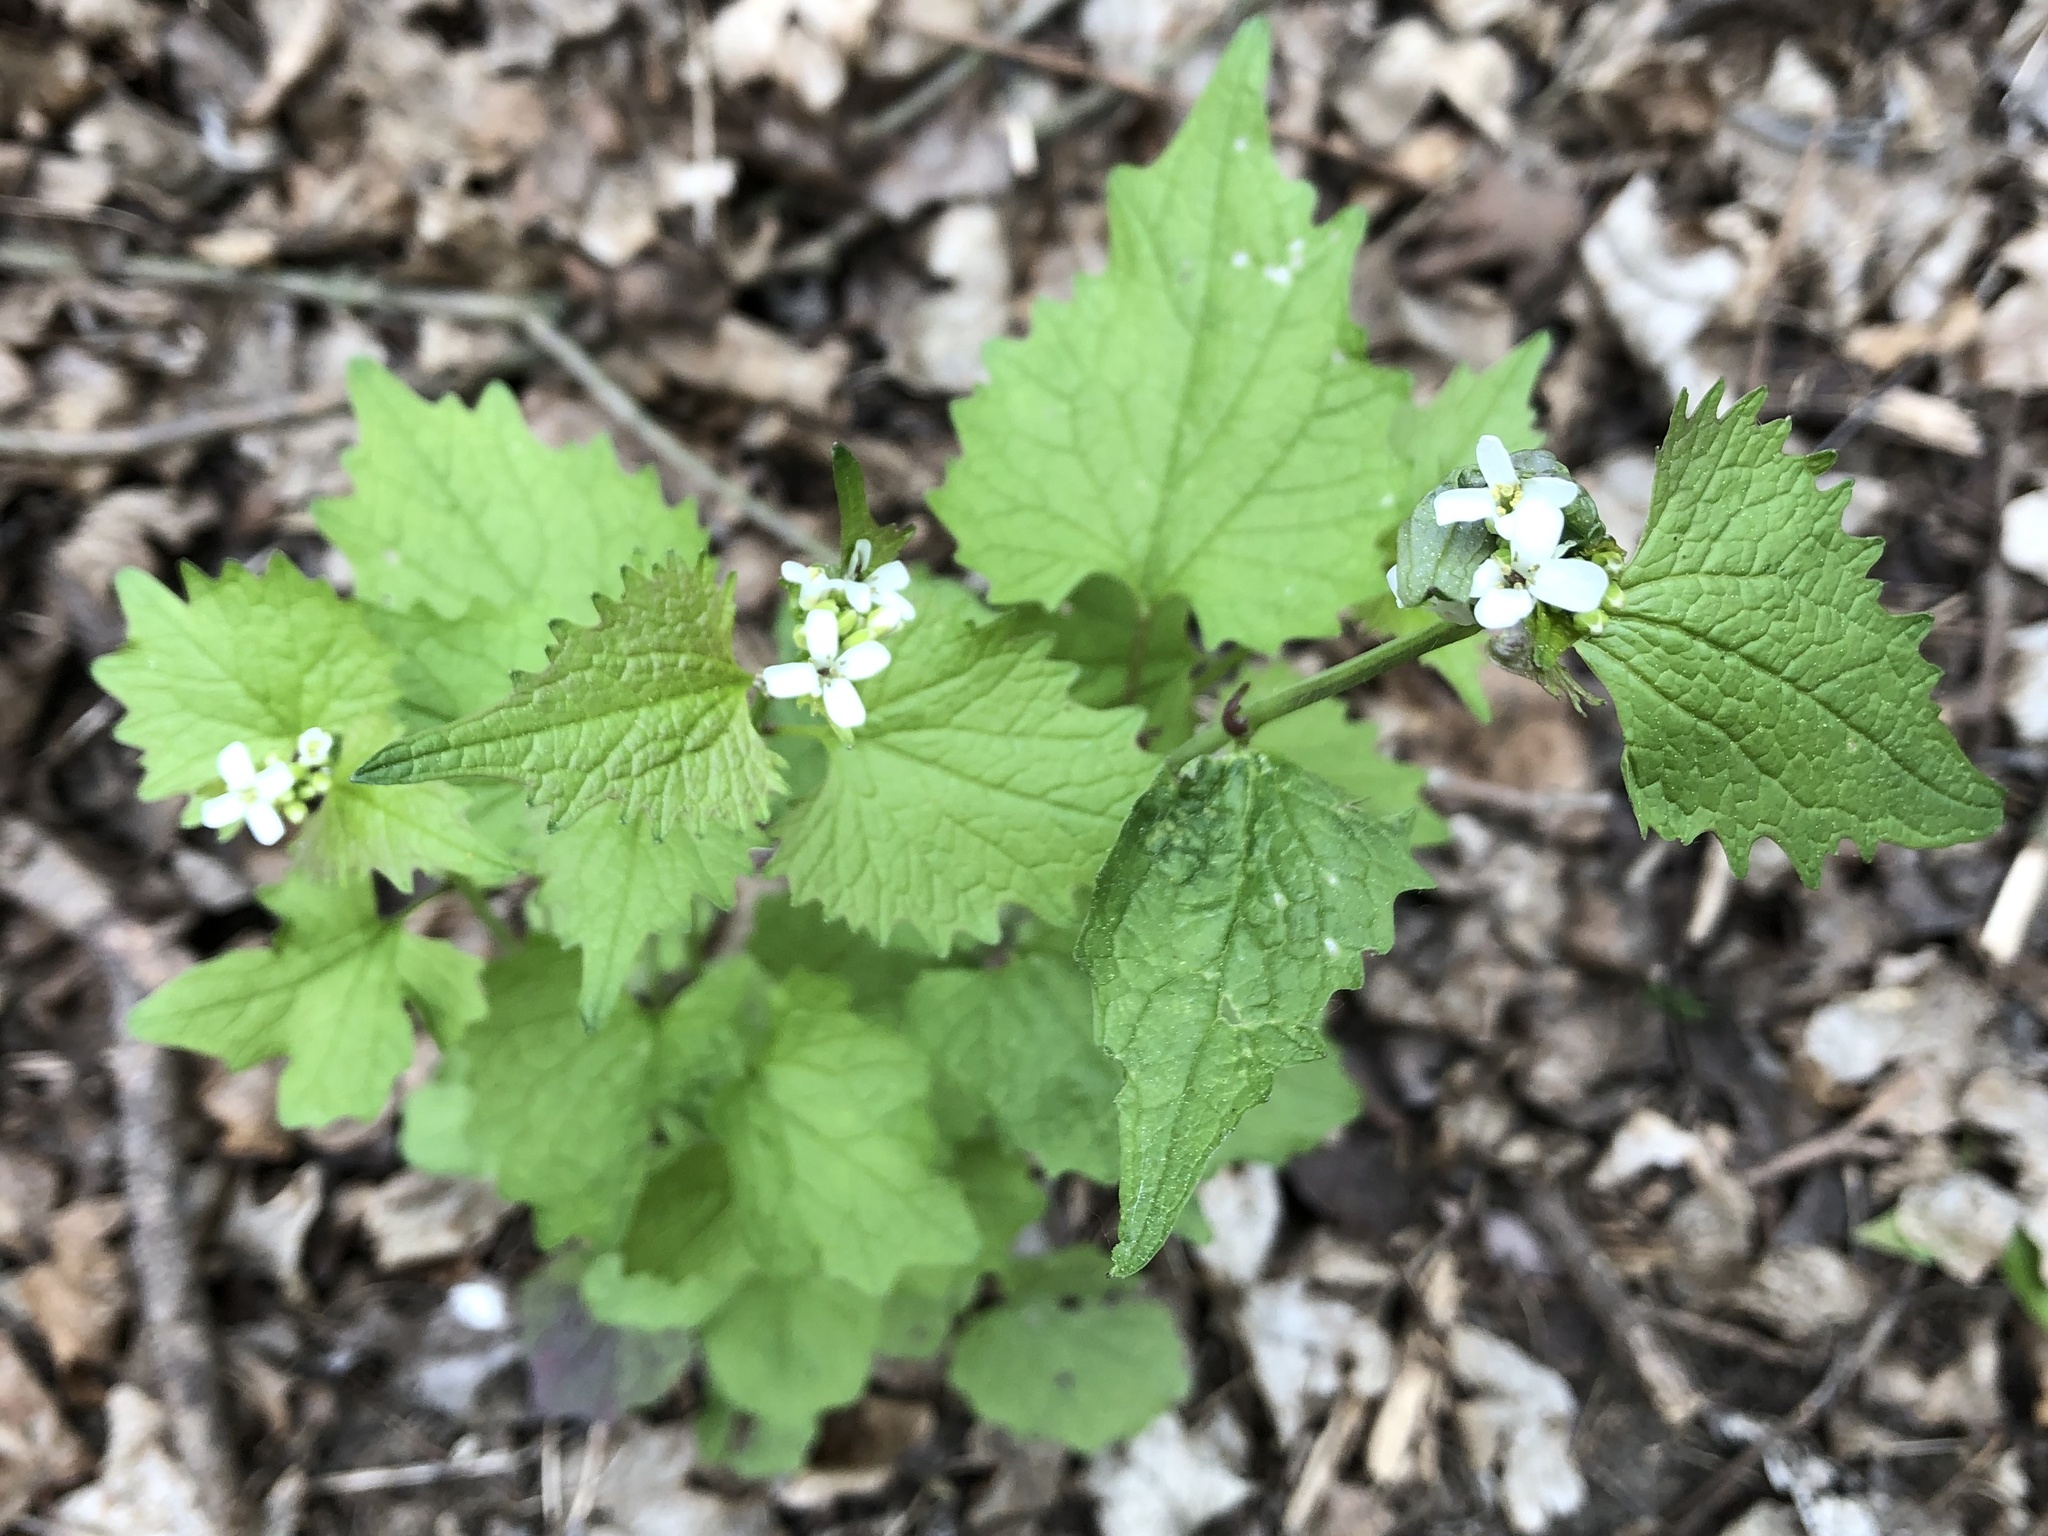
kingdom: Plantae
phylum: Tracheophyta
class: Magnoliopsida
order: Brassicales
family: Brassicaceae
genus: Alliaria
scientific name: Alliaria petiolata
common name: Garlic mustard
